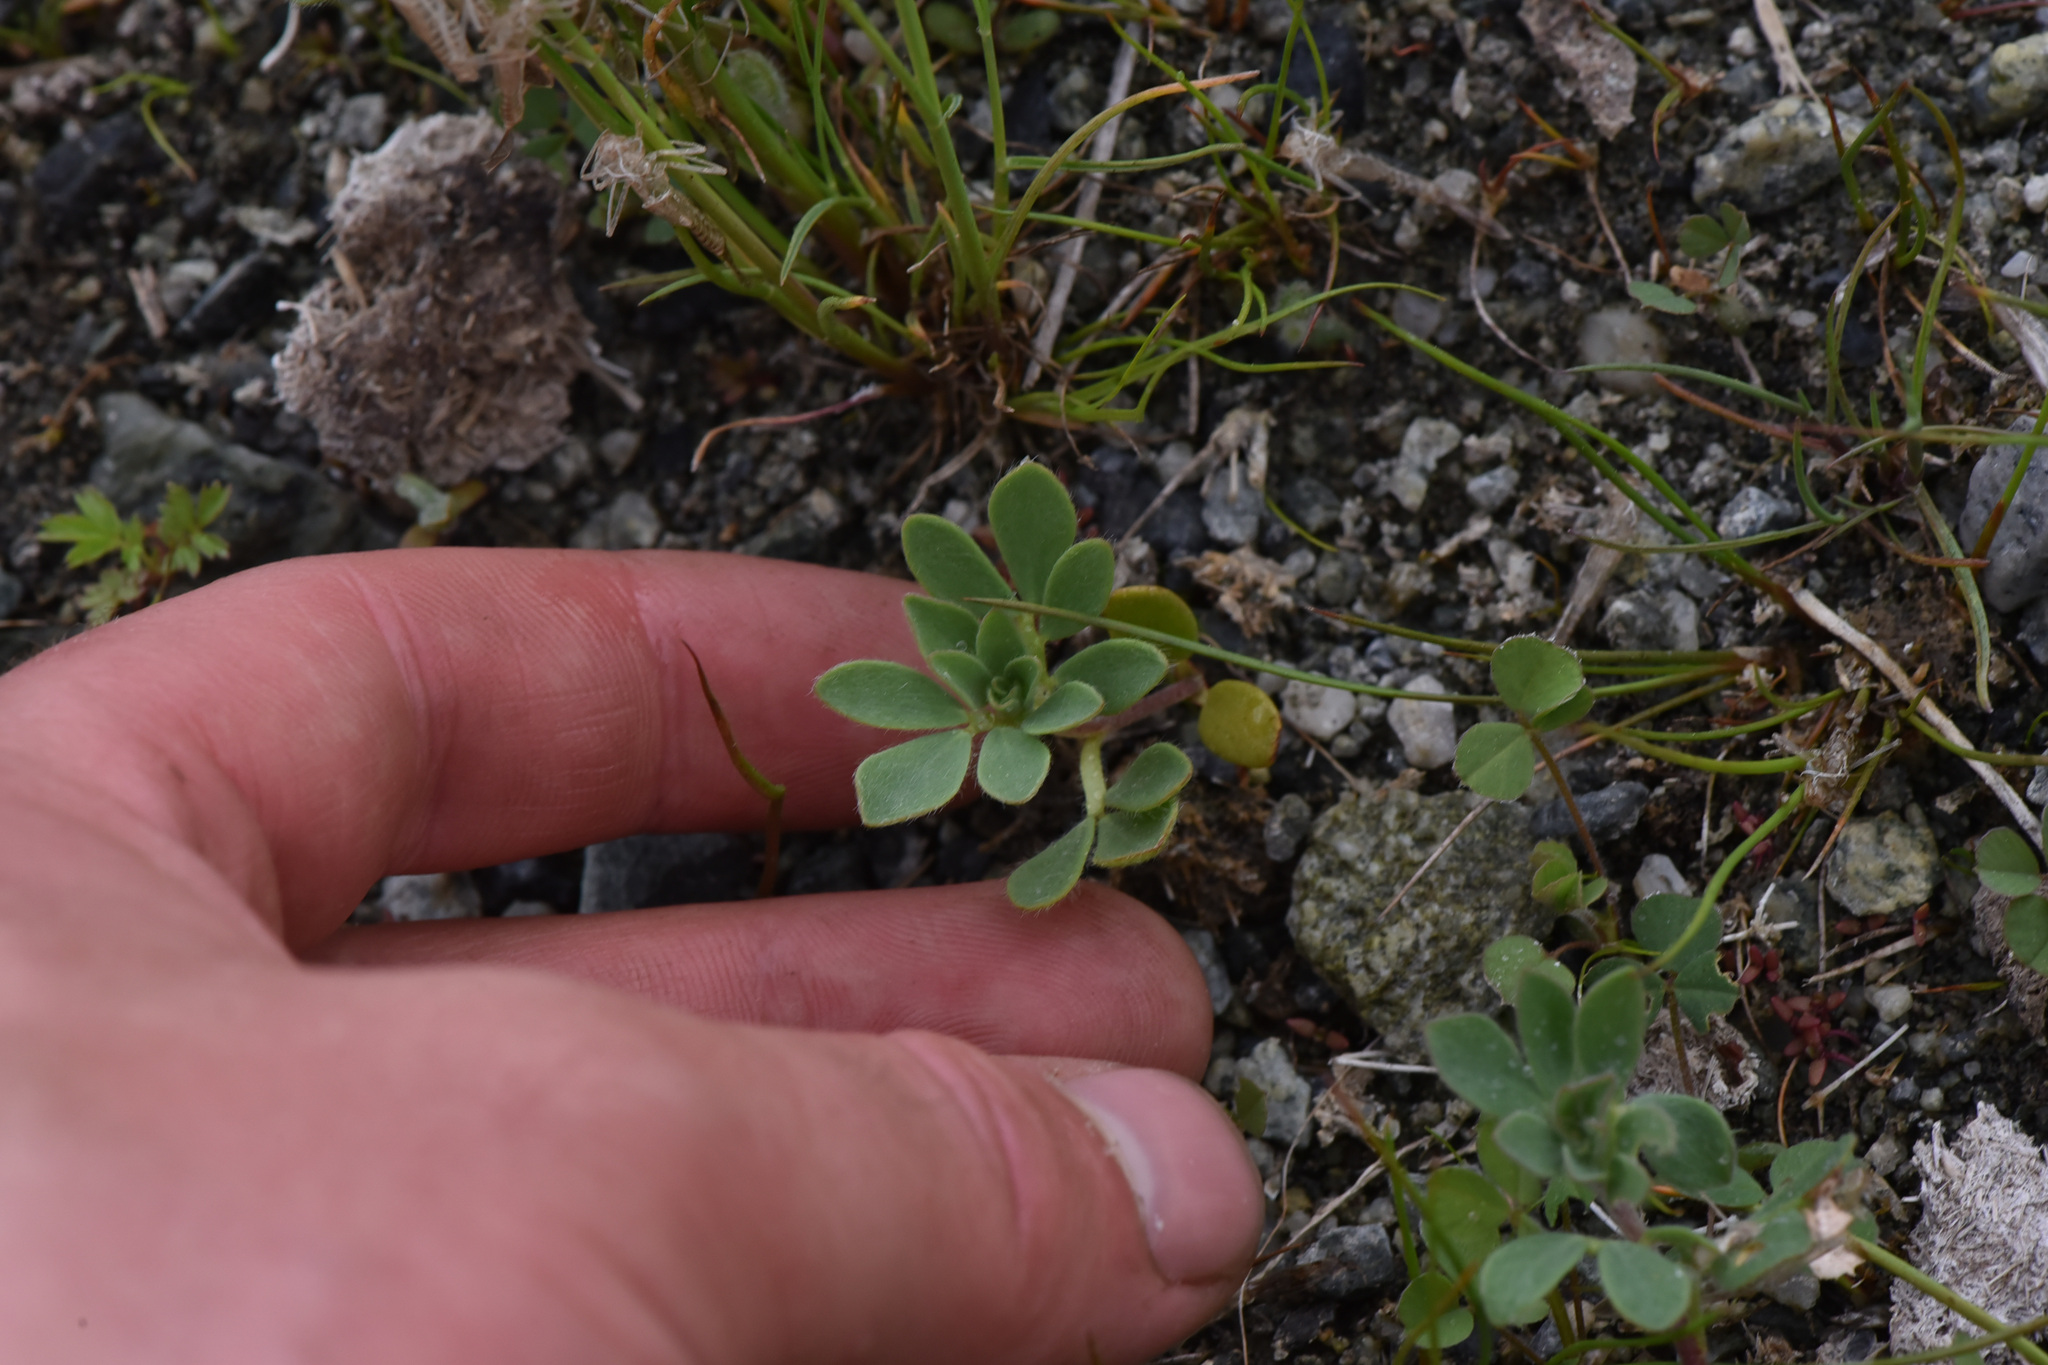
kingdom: Plantae
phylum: Tracheophyta
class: Magnoliopsida
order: Fabales
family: Fabaceae
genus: Acmispon
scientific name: Acmispon denticulatus
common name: Meadow bird's-foot trefoil
